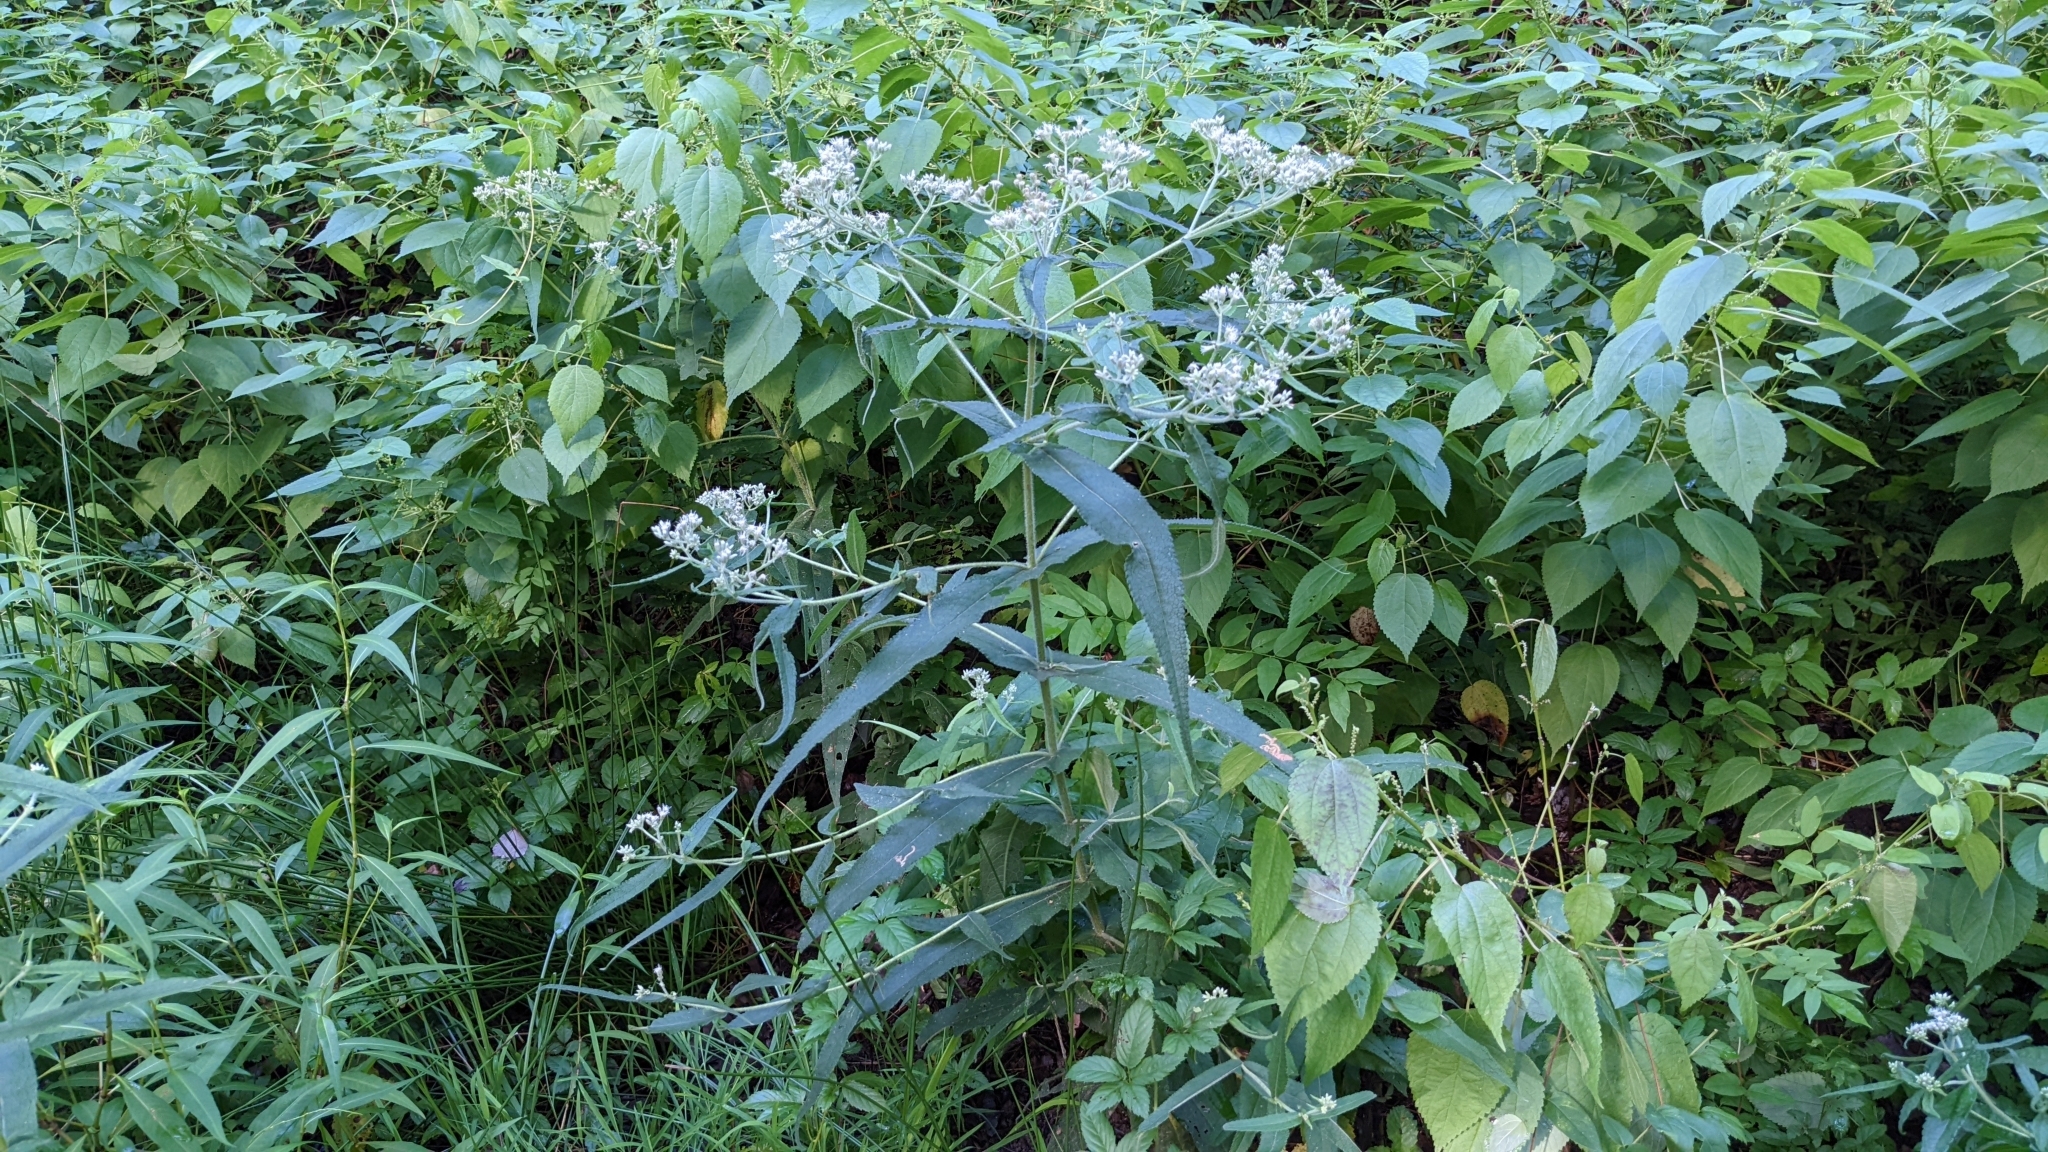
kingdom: Plantae
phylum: Tracheophyta
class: Magnoliopsida
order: Asterales
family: Asteraceae
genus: Eupatorium
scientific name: Eupatorium perfoliatum
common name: Boneset
